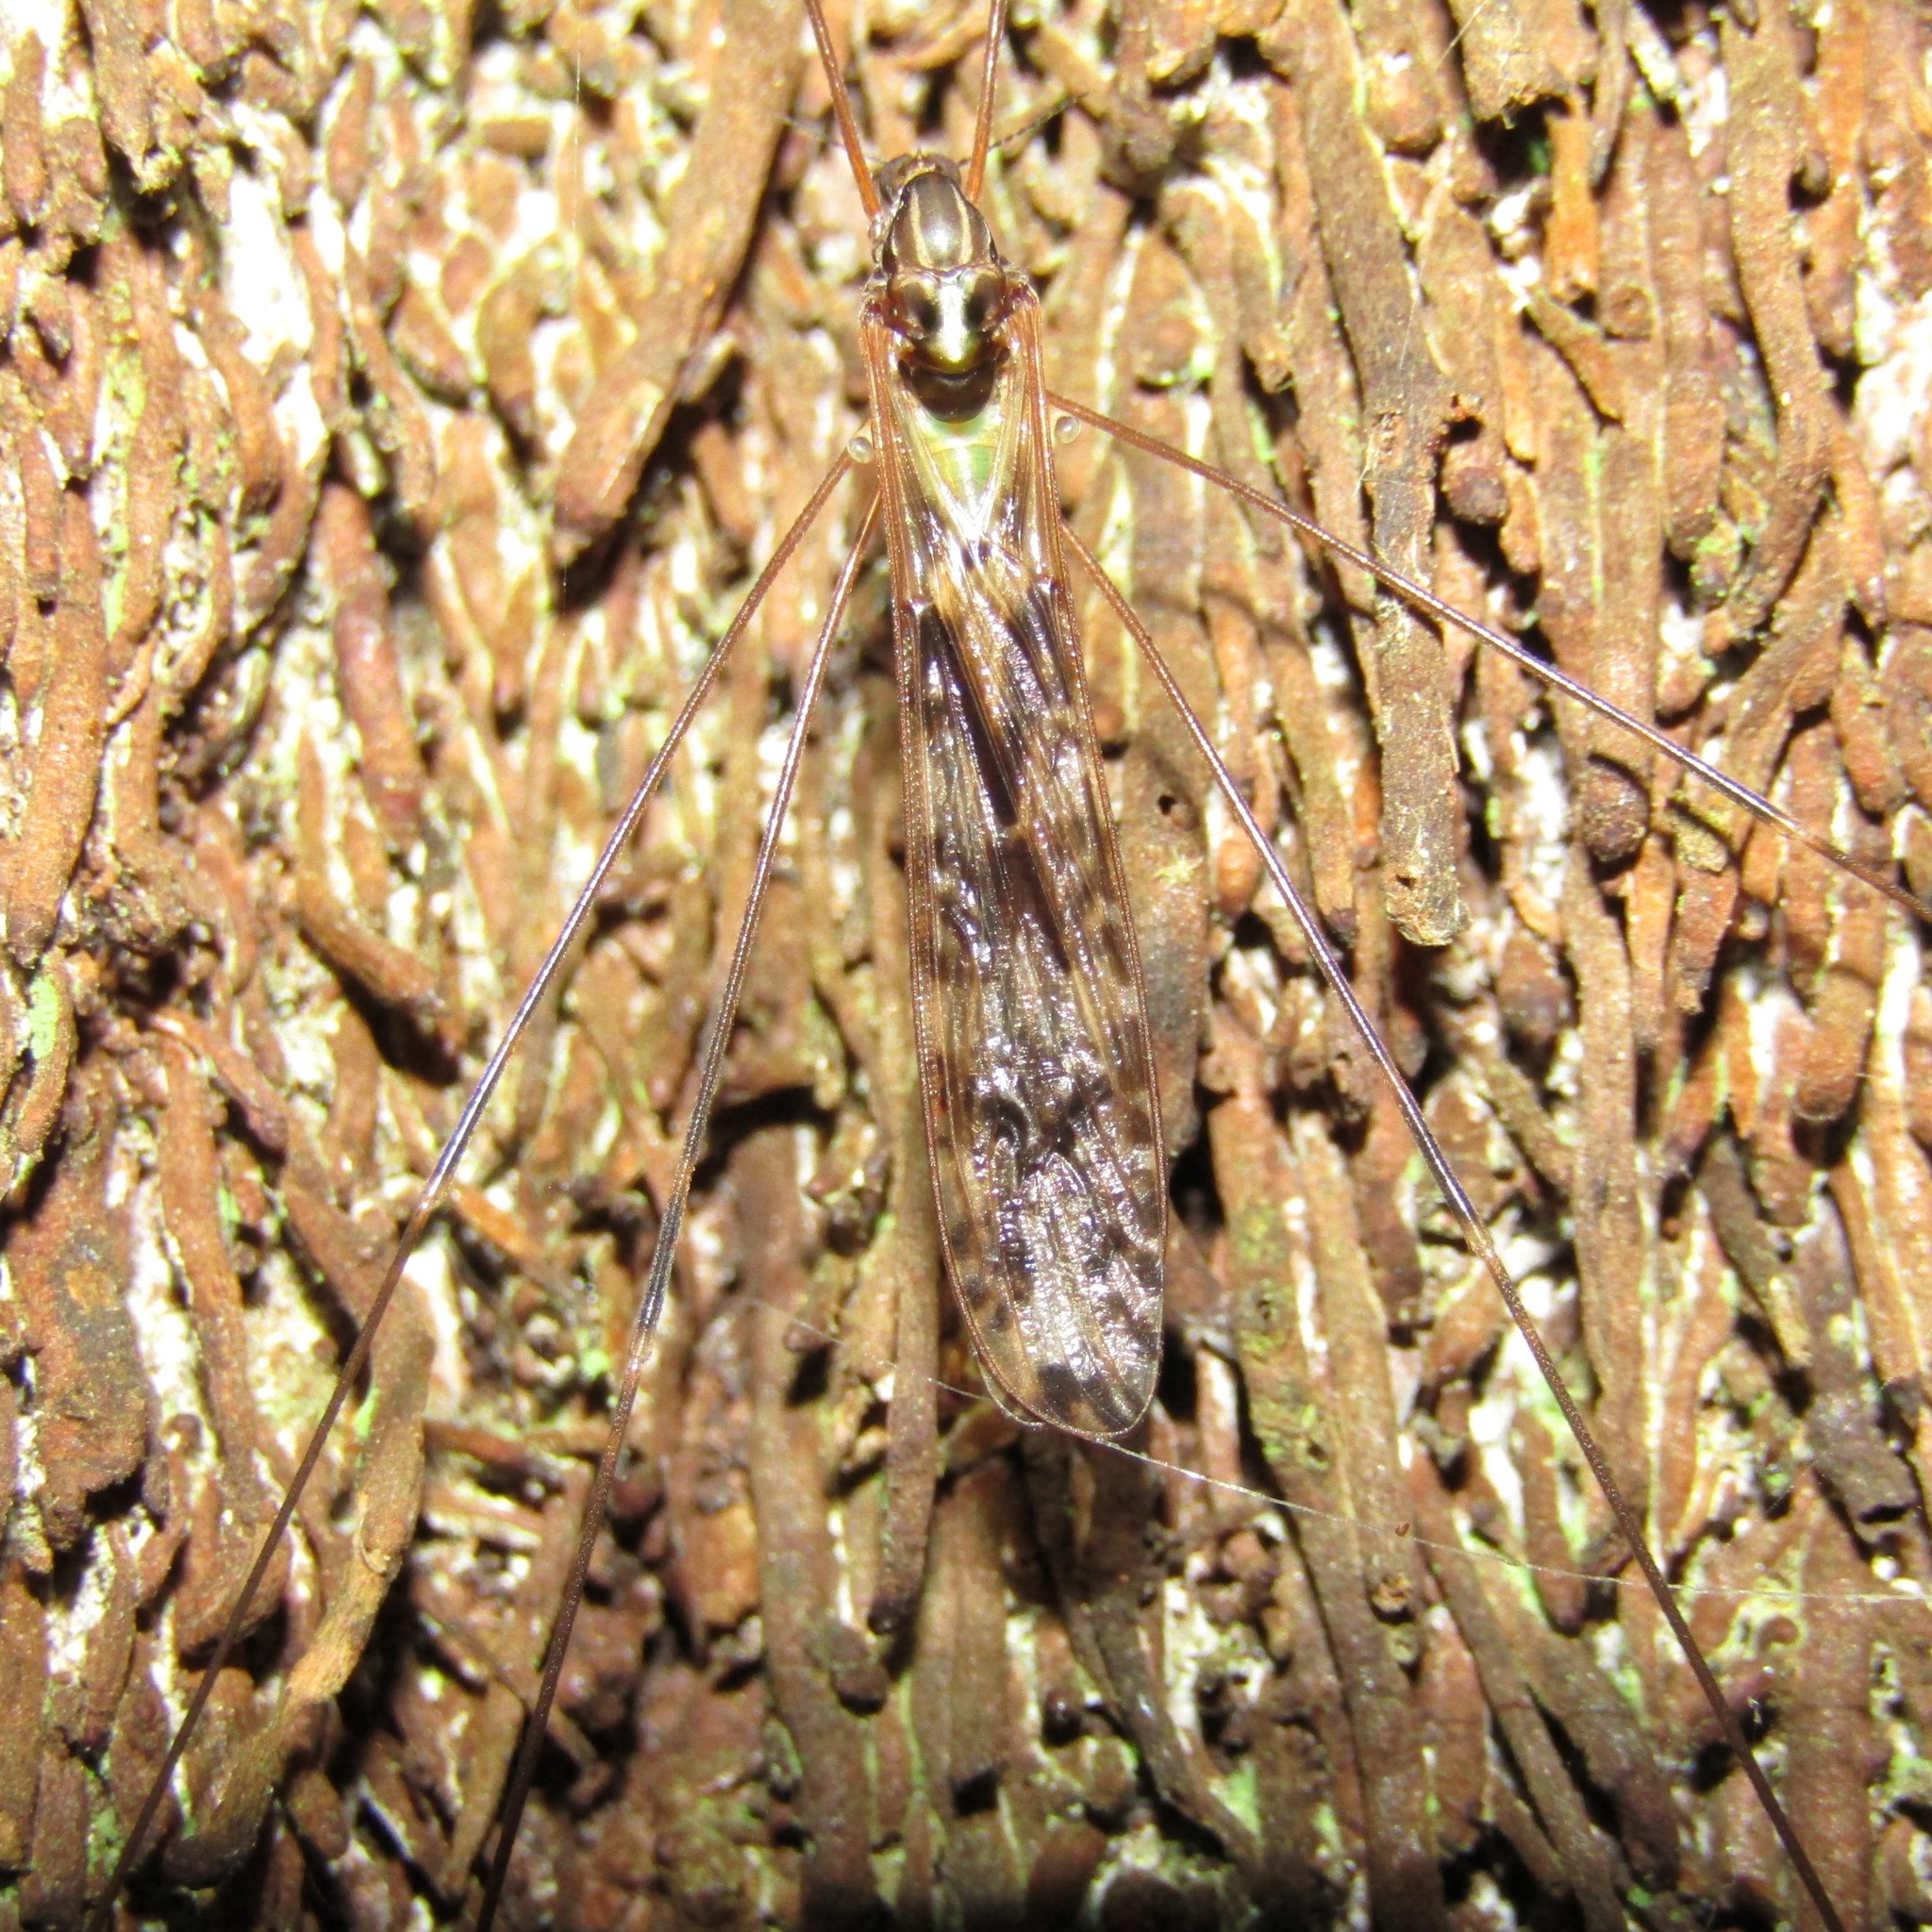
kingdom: Animalia
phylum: Arthropoda
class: Insecta
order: Diptera
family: Limoniidae
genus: Discobola
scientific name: Discobola dohrni
